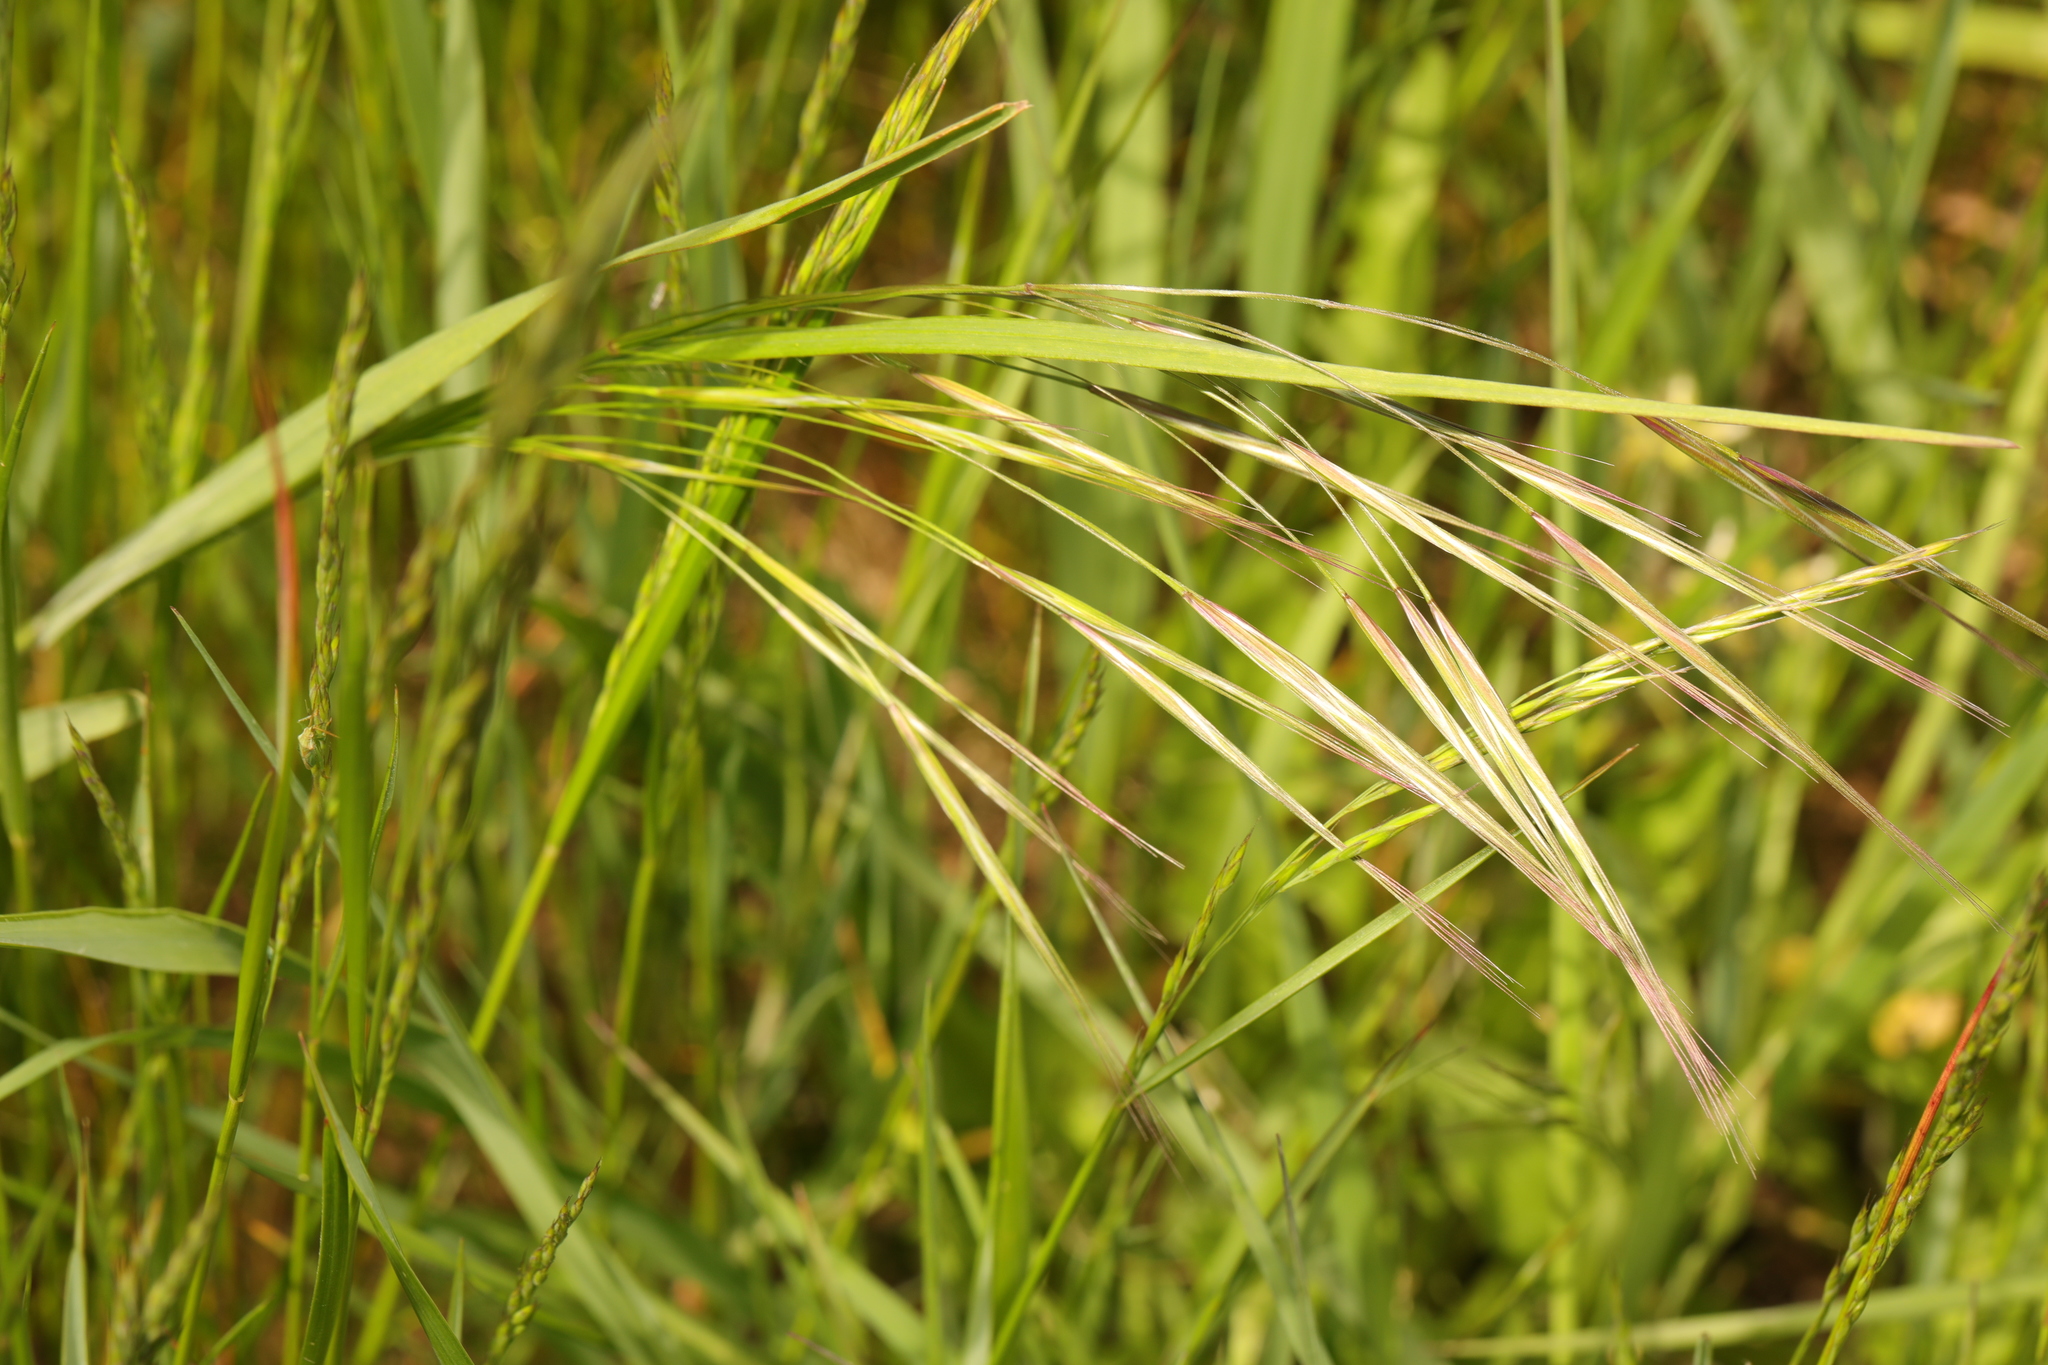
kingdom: Plantae
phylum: Tracheophyta
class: Liliopsida
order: Poales
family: Poaceae
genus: Bromus
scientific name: Bromus sterilis
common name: Poverty brome
